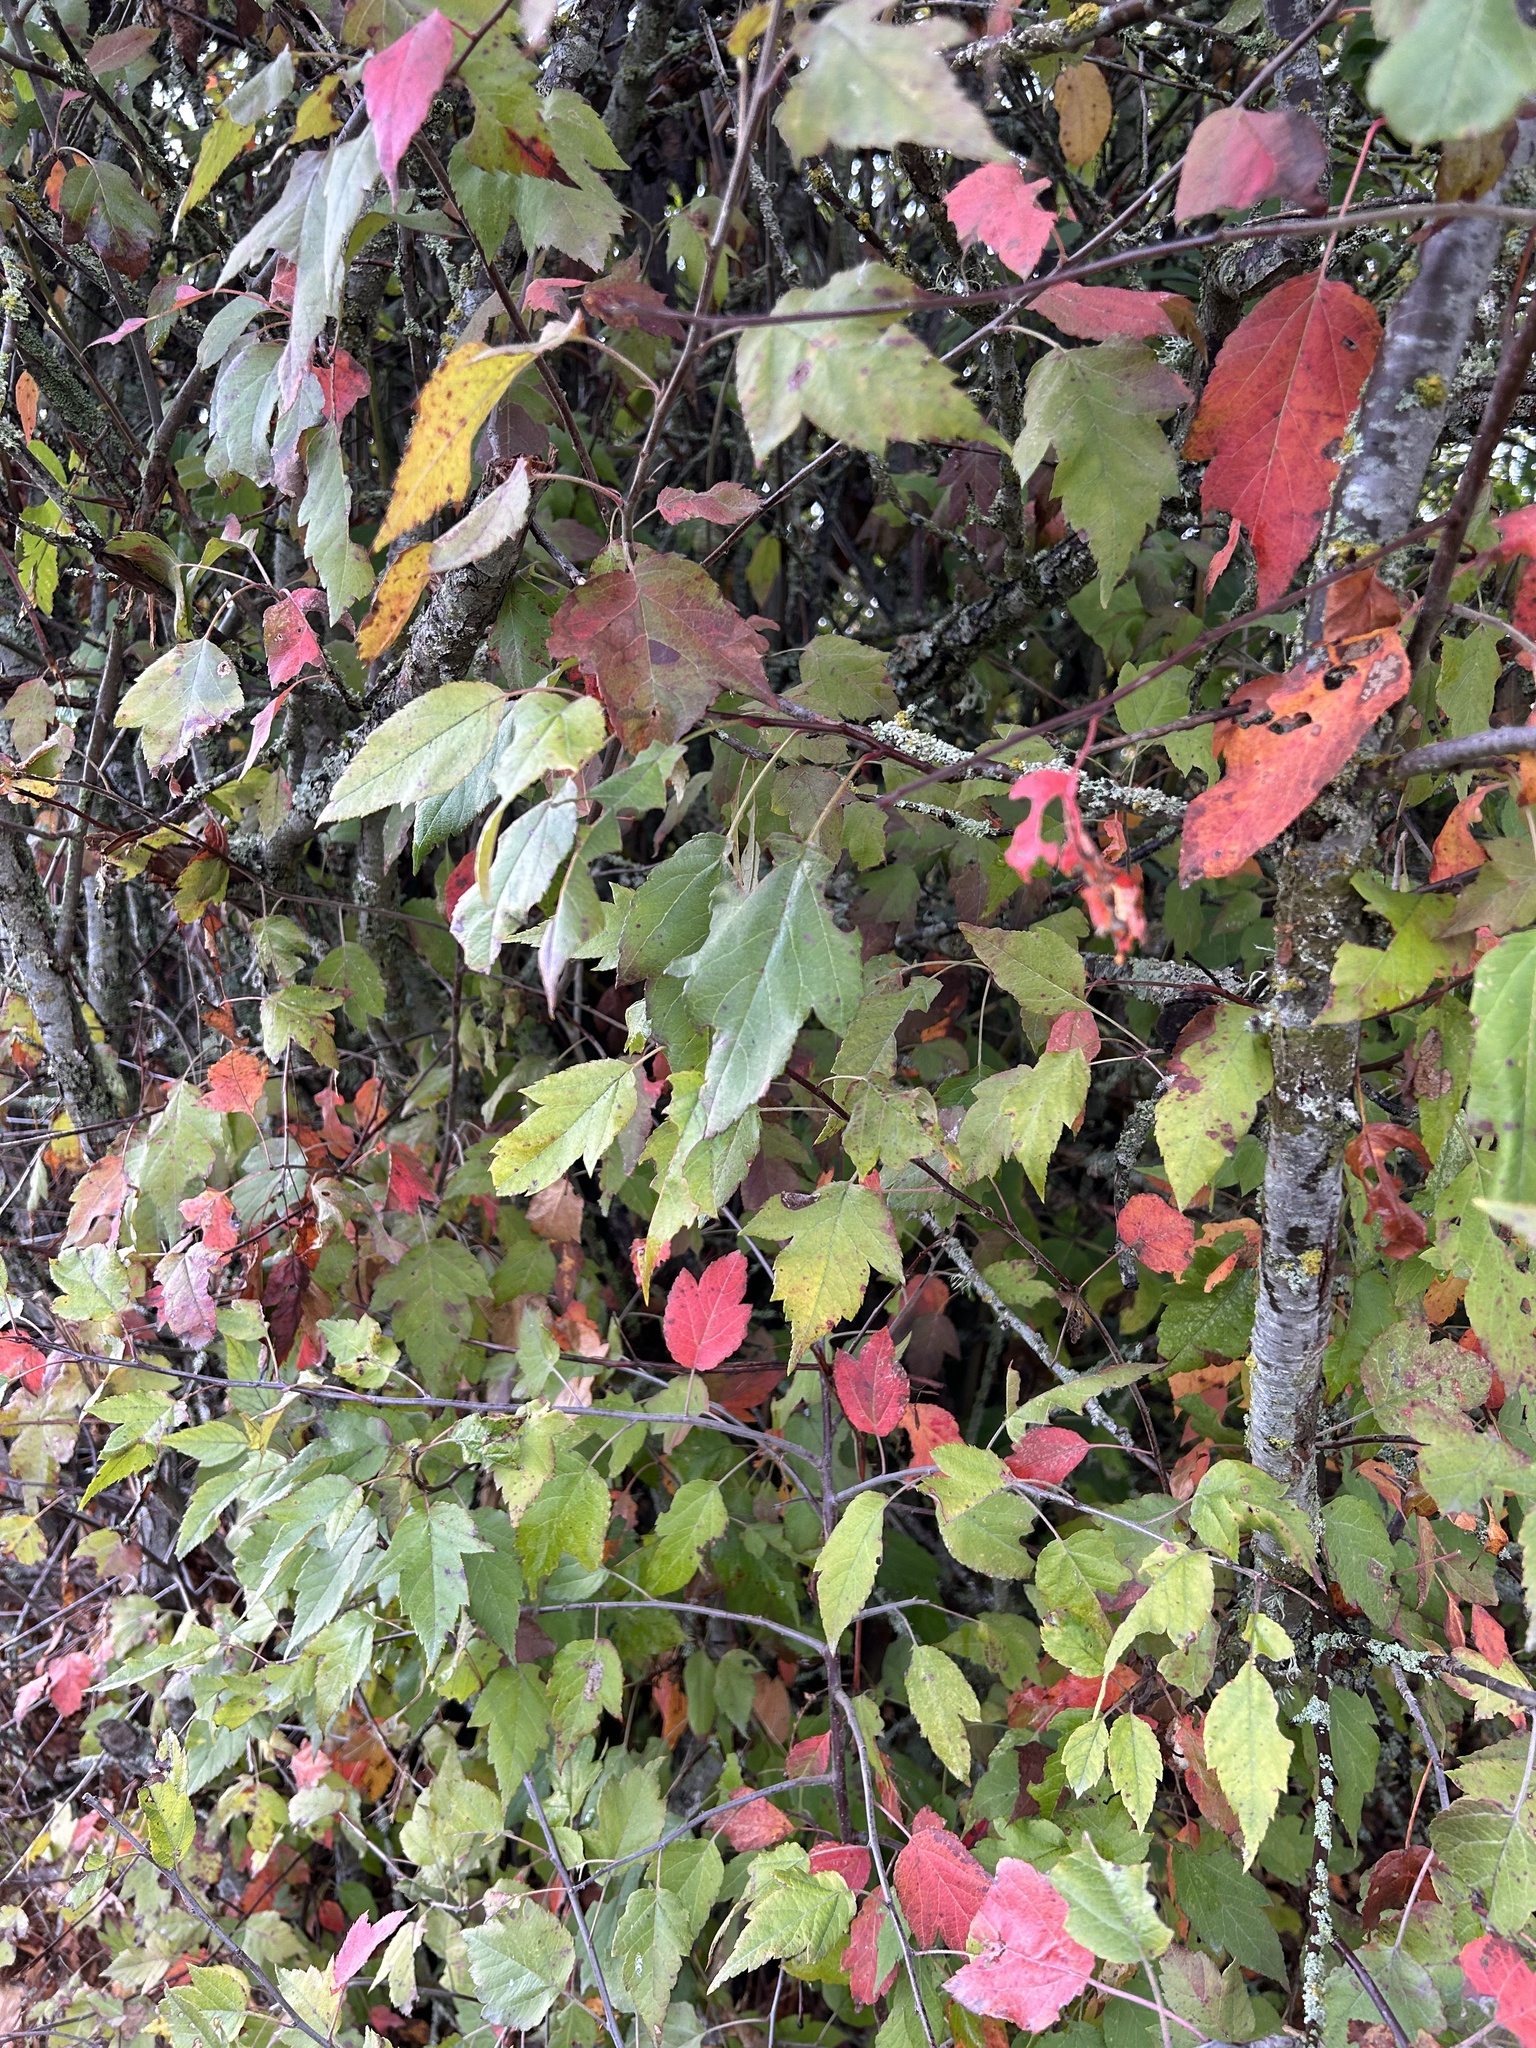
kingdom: Plantae
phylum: Tracheophyta
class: Magnoliopsida
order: Rosales
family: Rosaceae
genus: Malus
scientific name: Malus fusca
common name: Oregon crab apple
